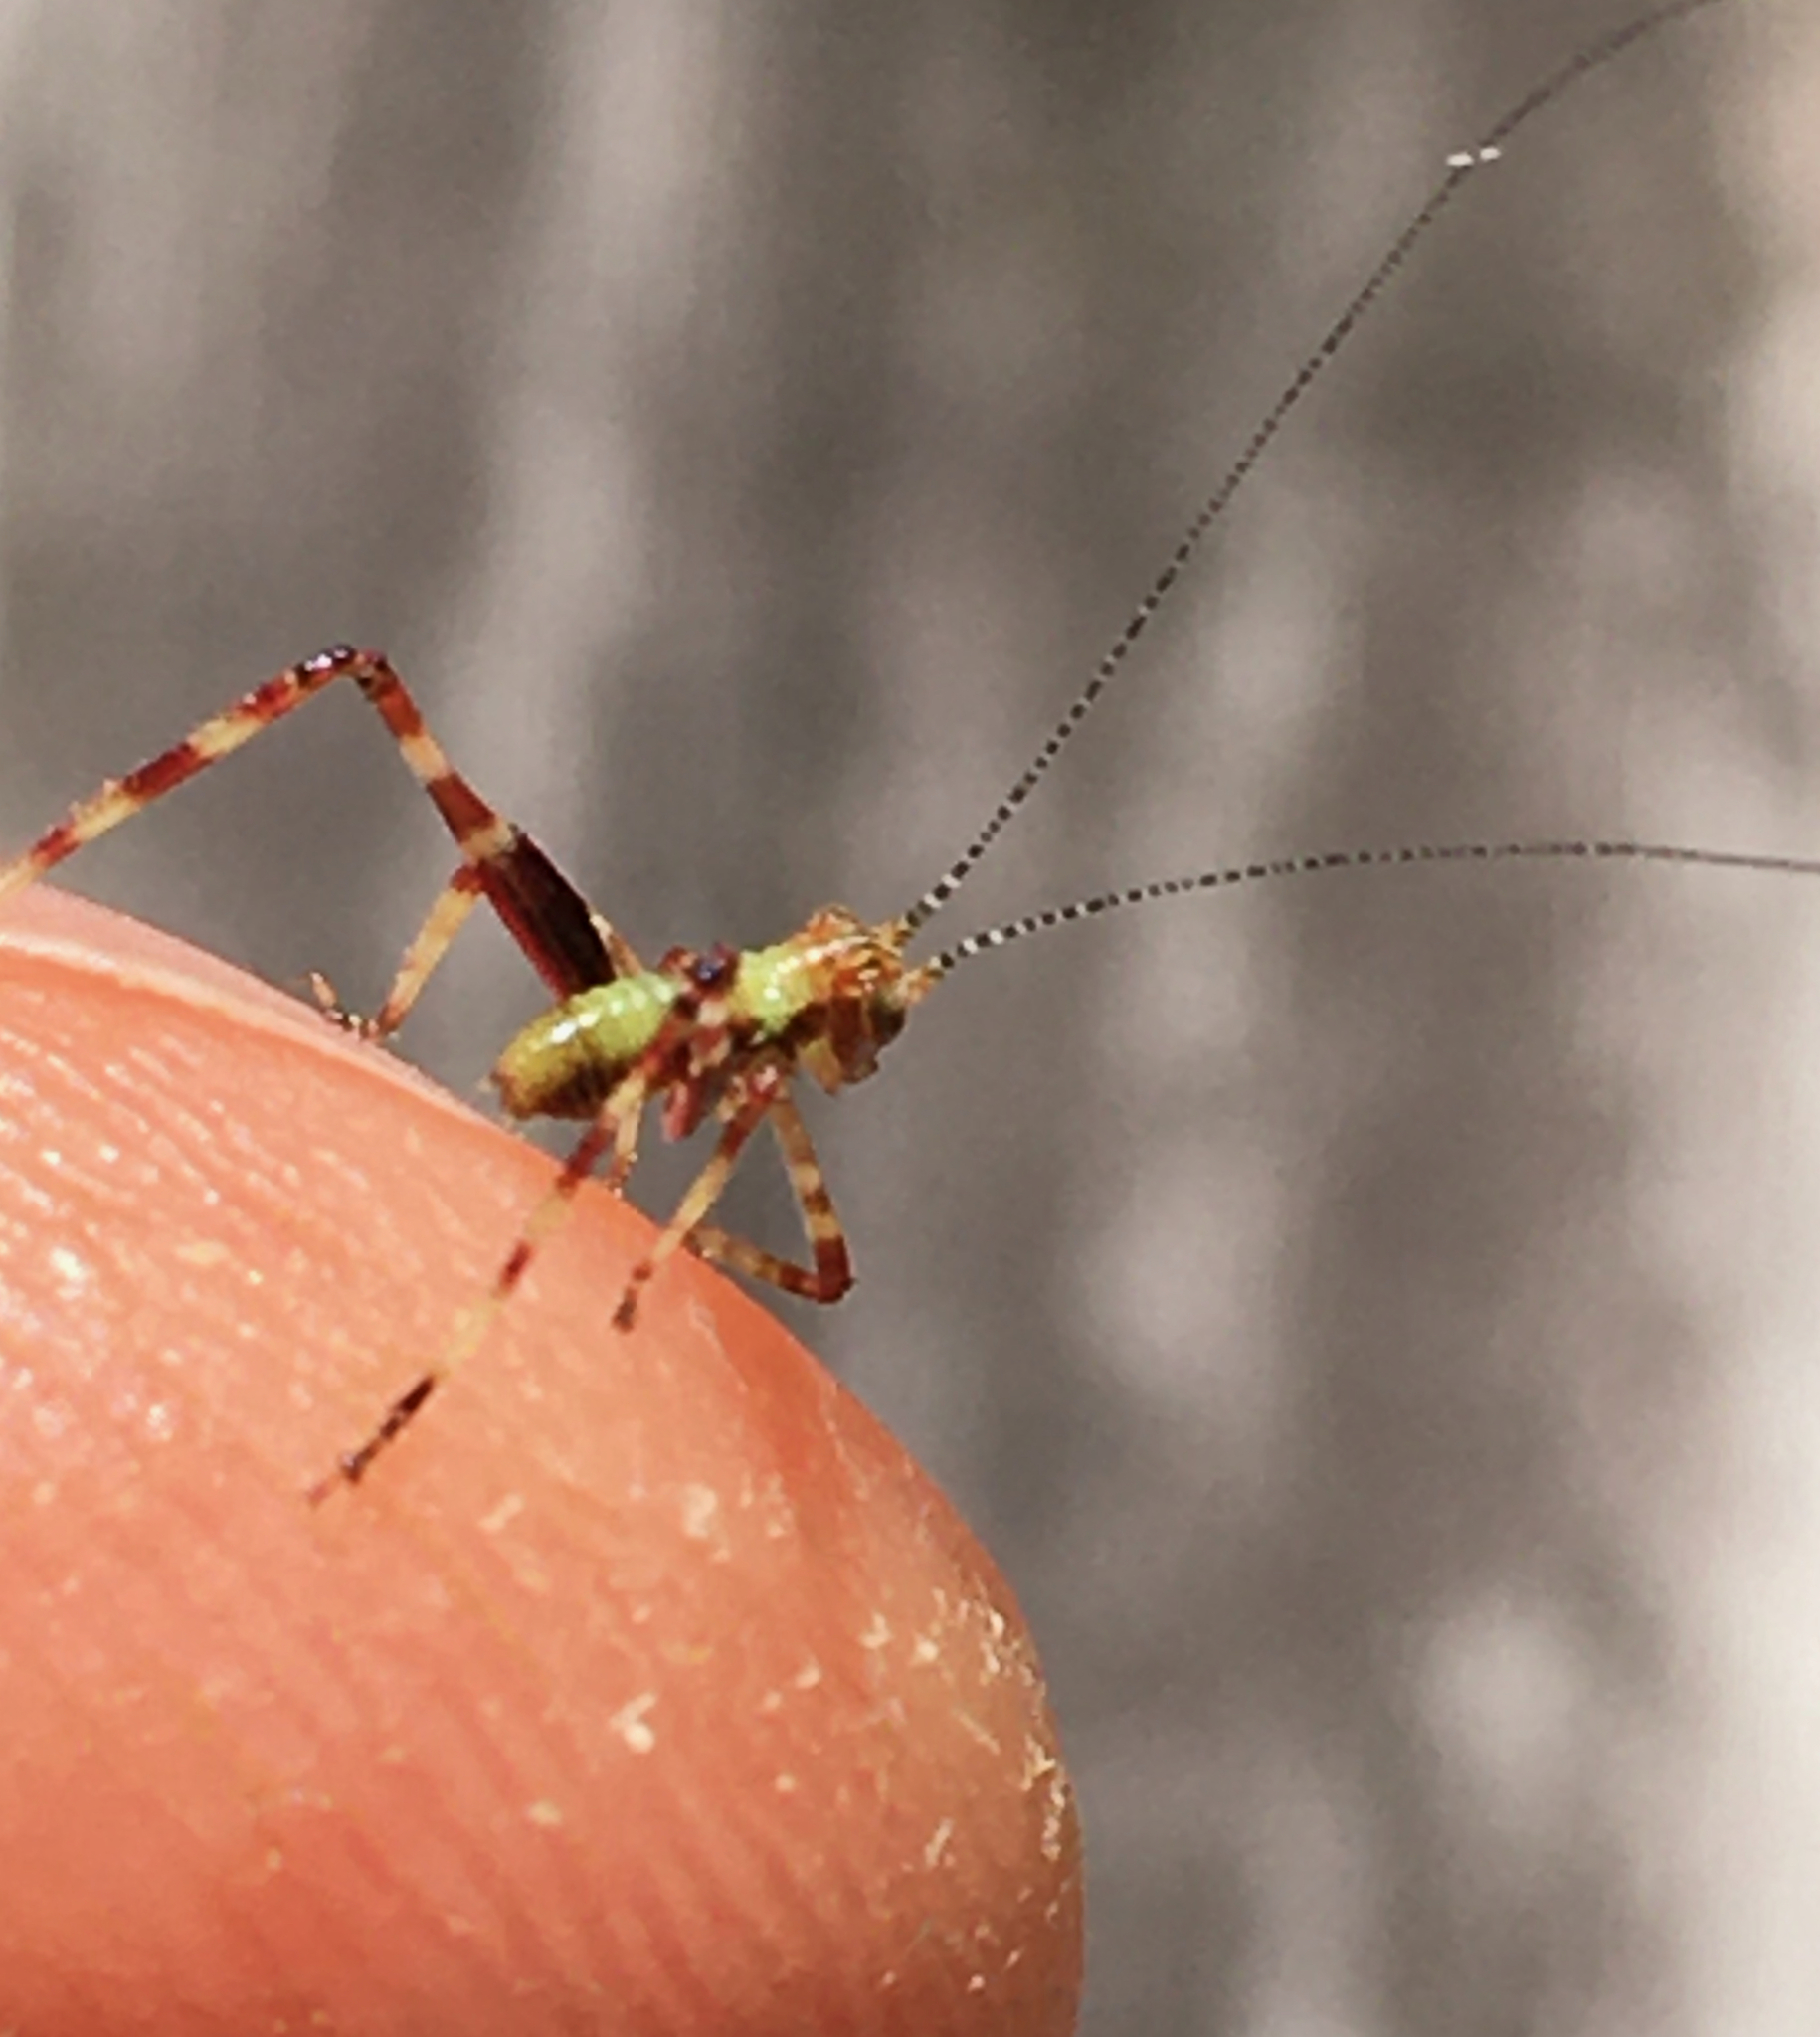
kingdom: Animalia
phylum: Arthropoda
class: Insecta
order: Orthoptera
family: Tettigoniidae
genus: Caedicia
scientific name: Caedicia simplex
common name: Common garden katydid
